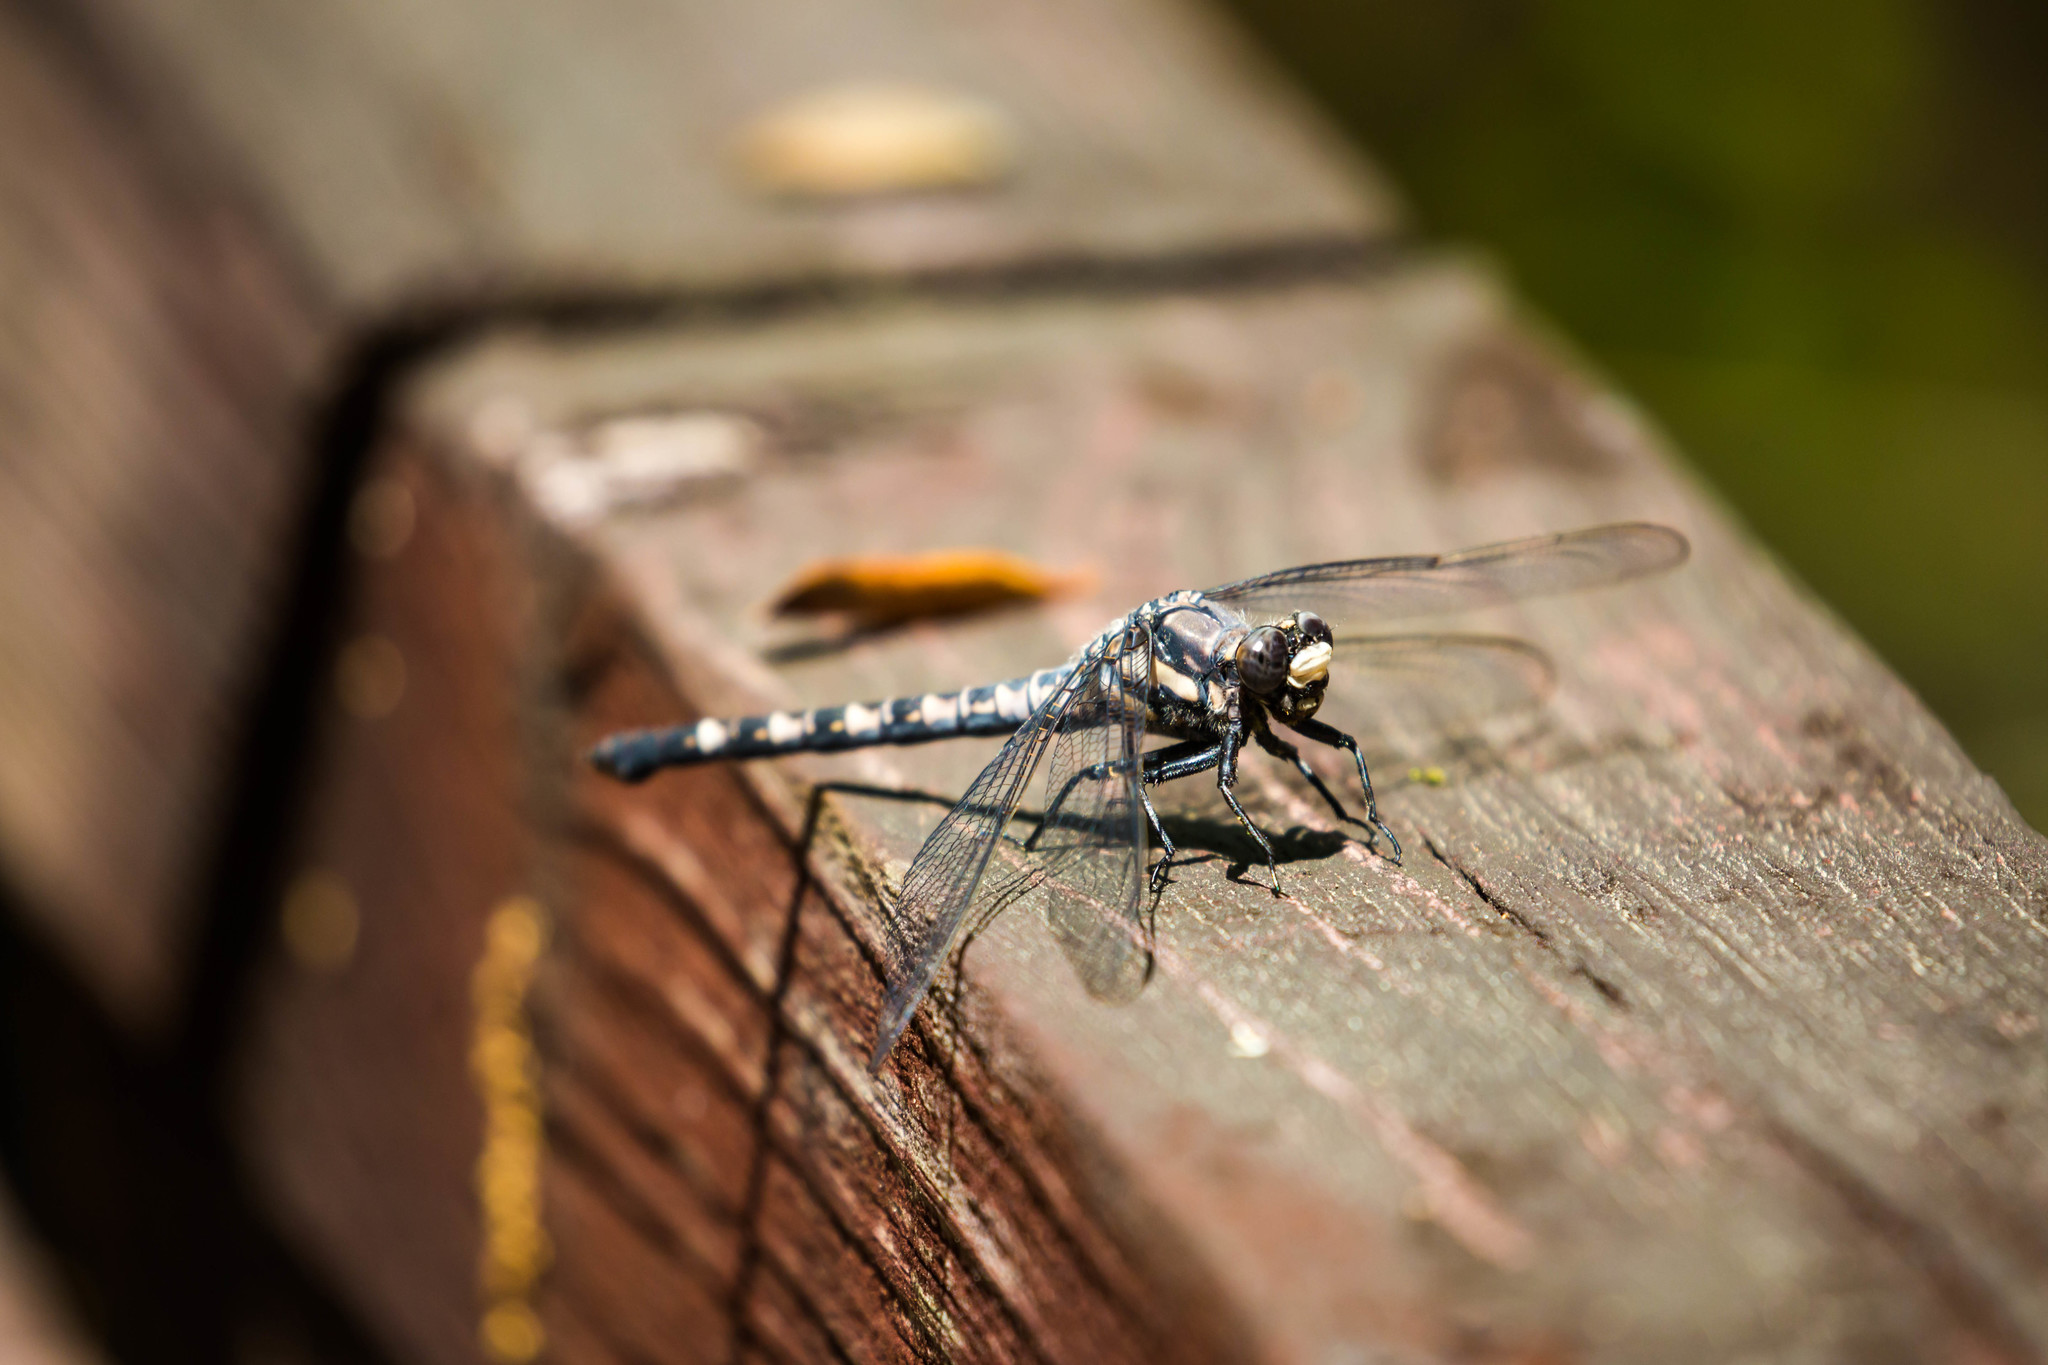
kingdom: Animalia
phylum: Arthropoda
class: Insecta
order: Odonata
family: Petaluridae
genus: Tachopteryx
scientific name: Tachopteryx thoreyi
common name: Gray petaltail
